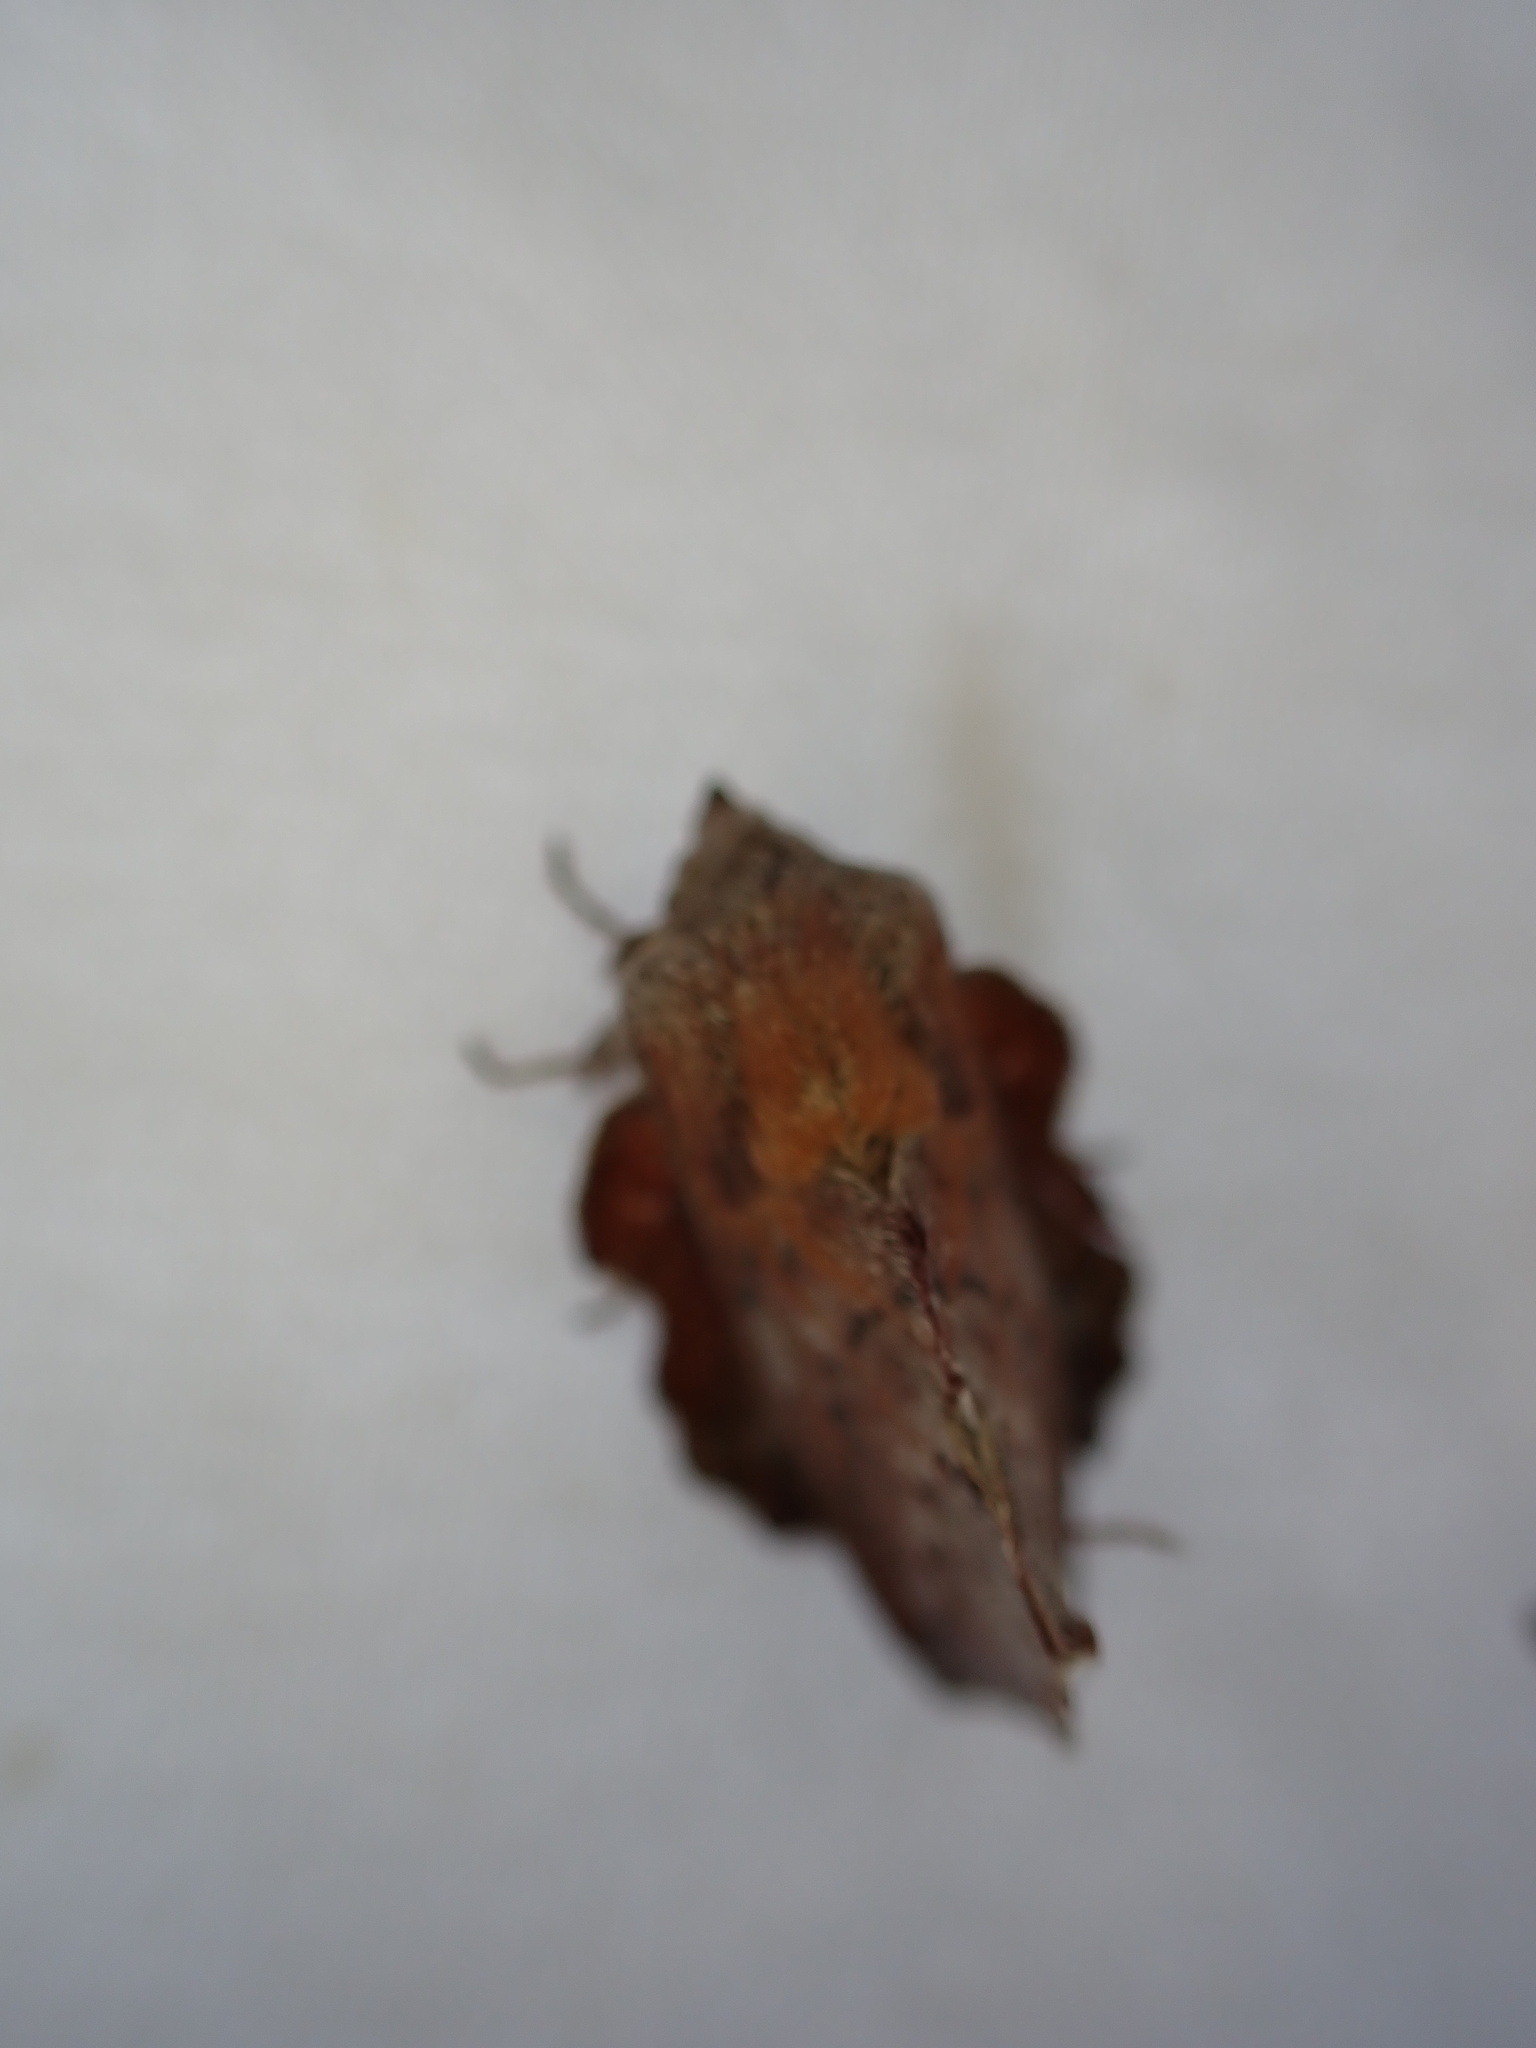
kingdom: Animalia
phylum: Arthropoda
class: Insecta
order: Lepidoptera
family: Lasiocampidae
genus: Phyllodesma
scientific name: Phyllodesma americana
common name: American lappet moth
